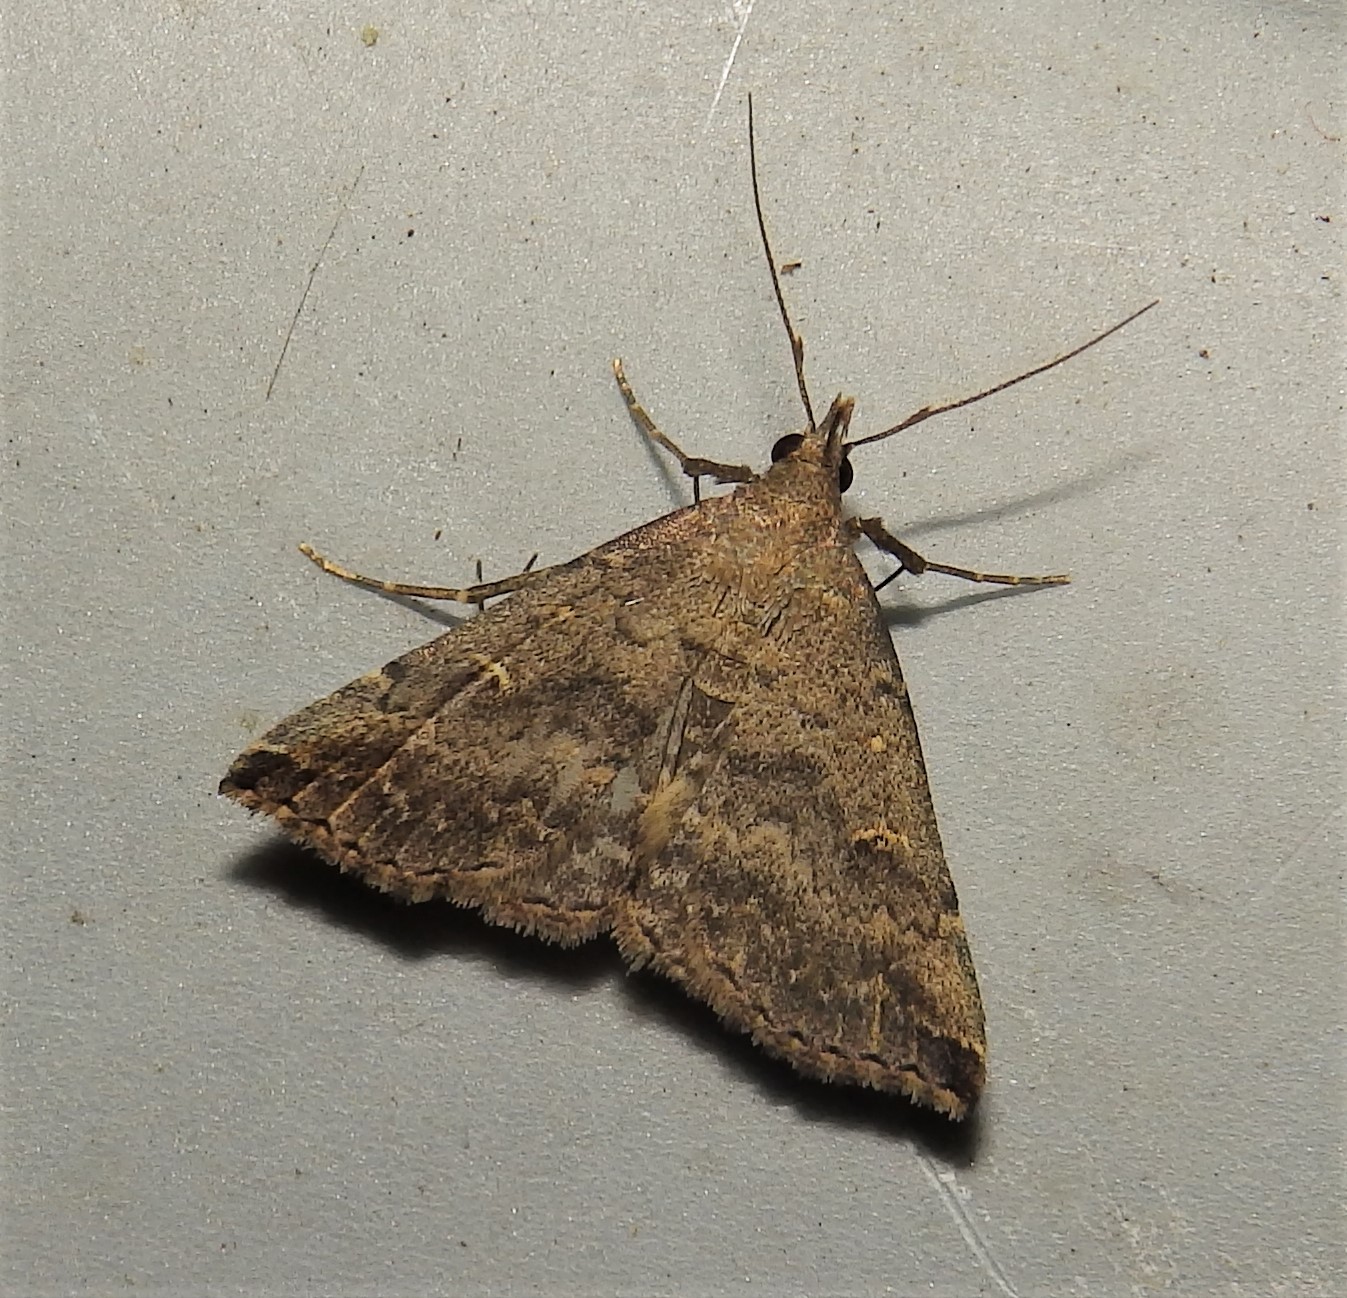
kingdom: Animalia
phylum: Arthropoda
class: Insecta
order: Lepidoptera
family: Erebidae
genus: Tetanolita
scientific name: Tetanolita floridana
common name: Florida tetanolita moth
